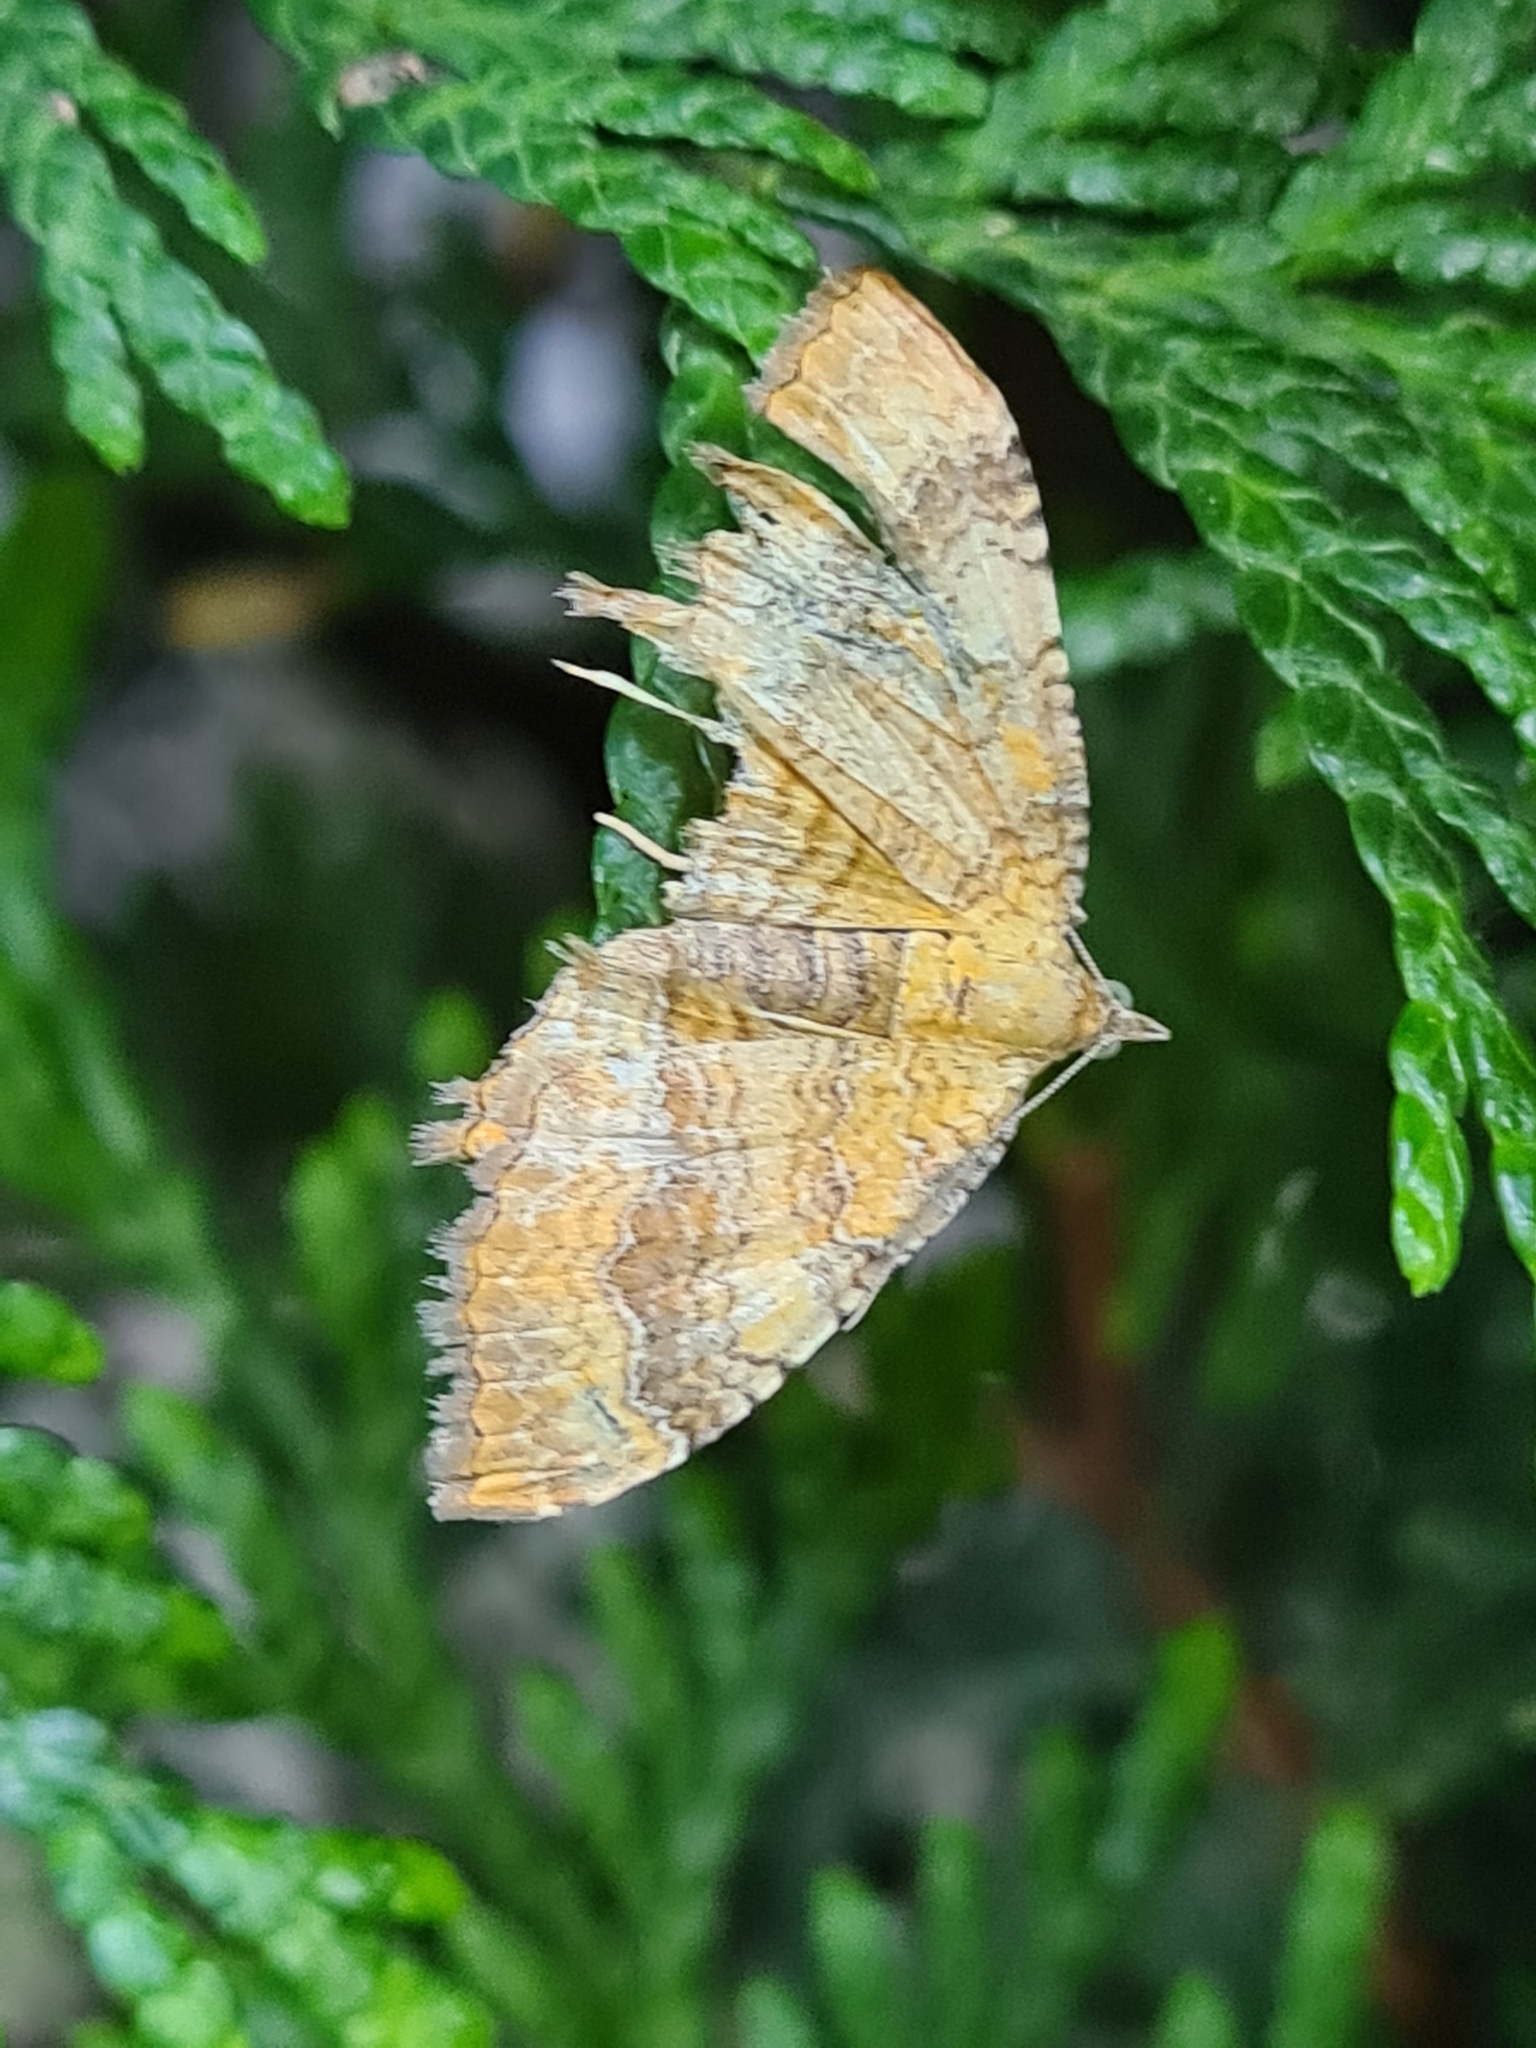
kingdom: Animalia
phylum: Arthropoda
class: Insecta
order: Lepidoptera
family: Geometridae
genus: Camptogramma
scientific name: Camptogramma bilineata
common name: Yellow shell
